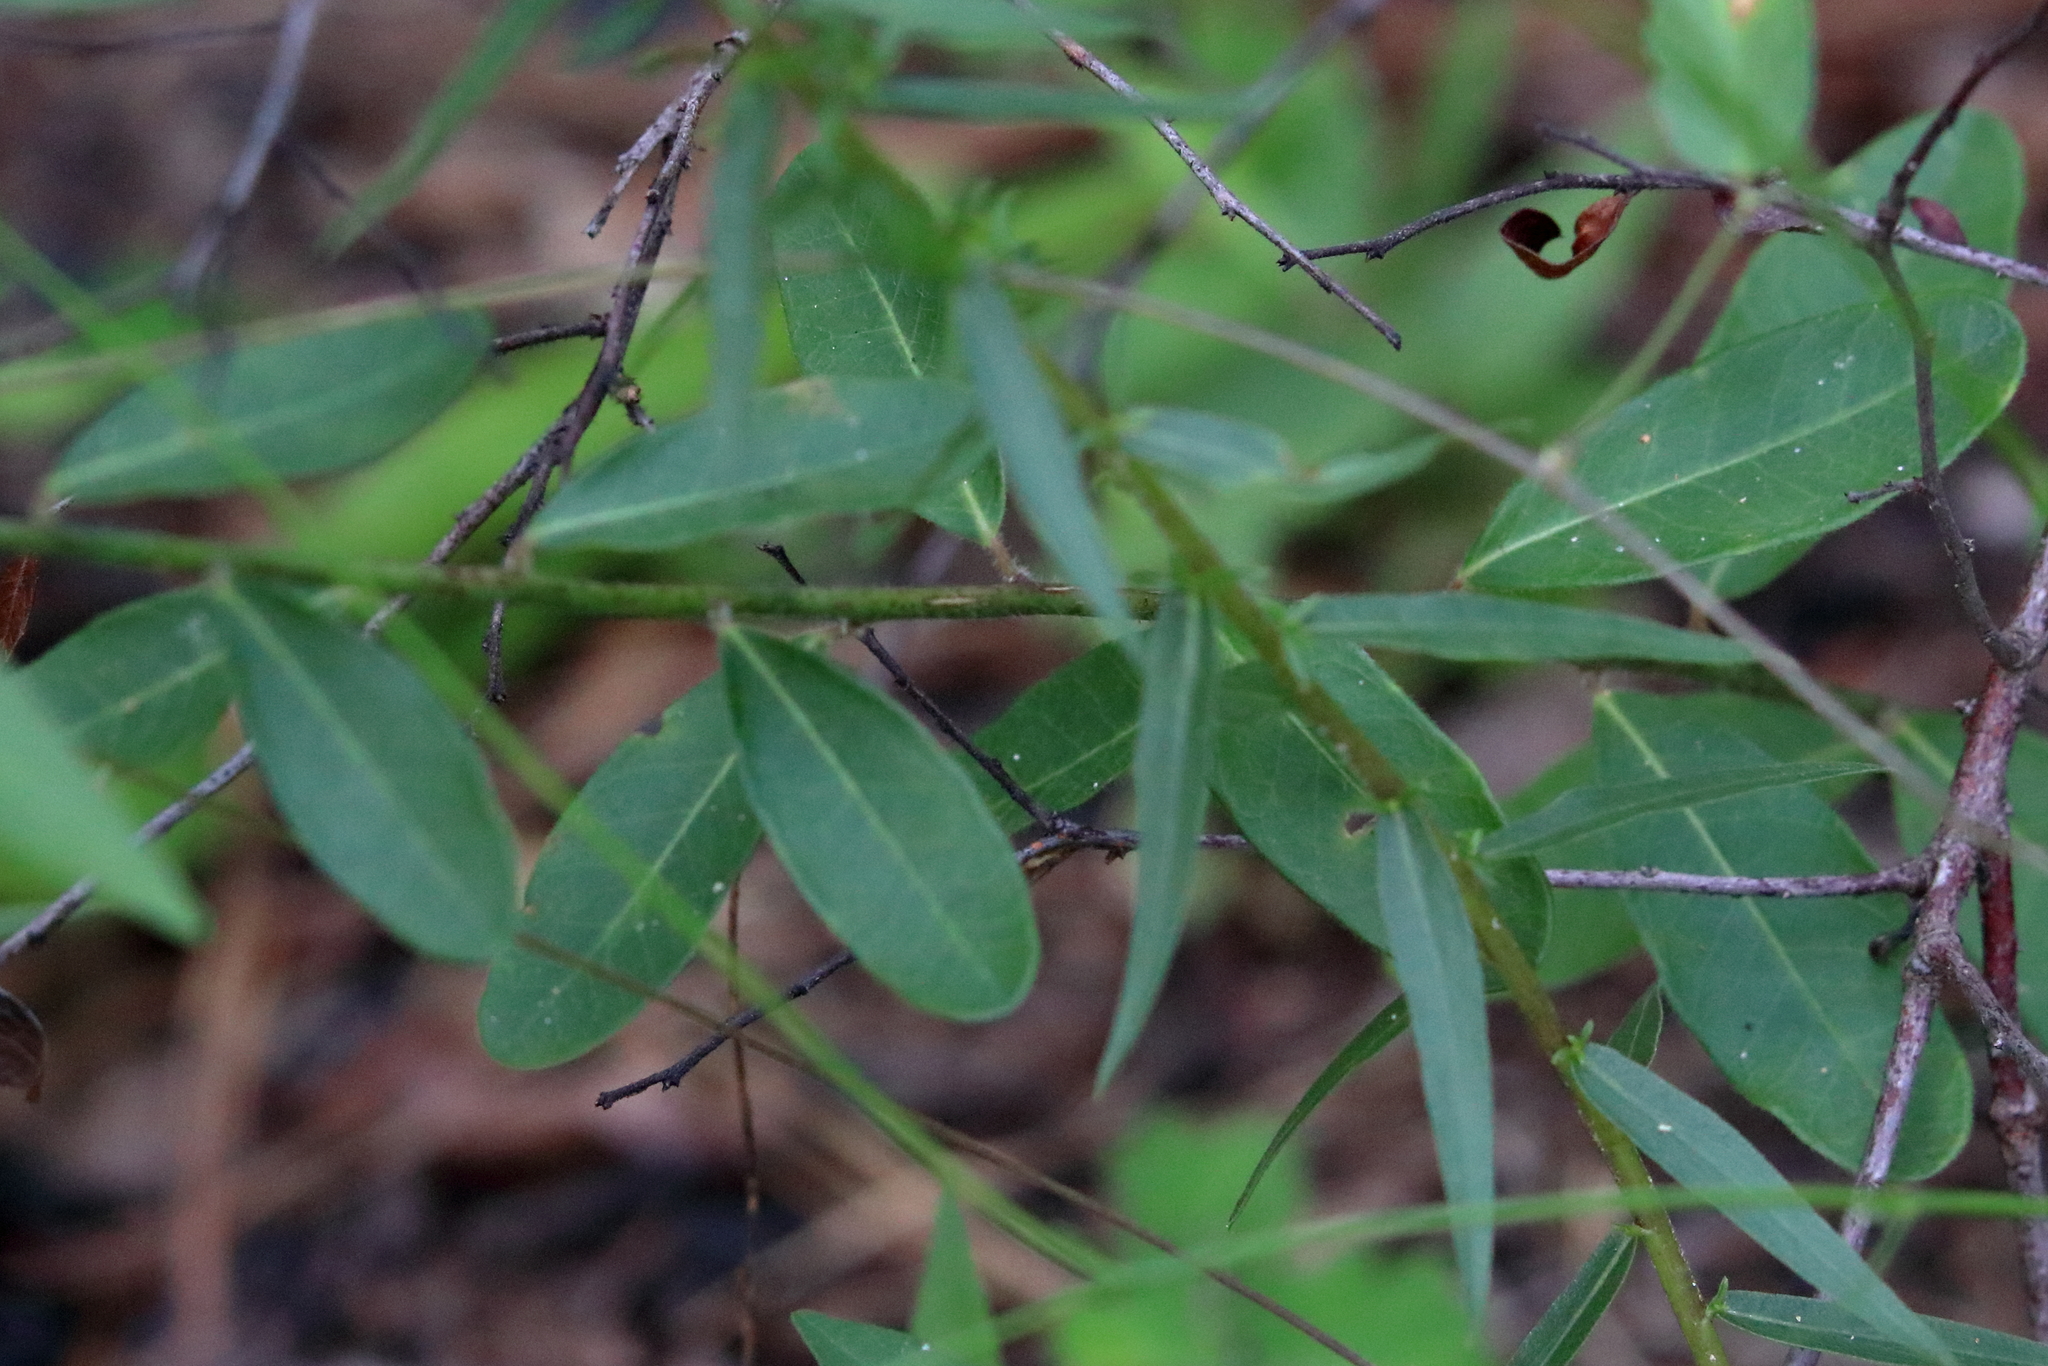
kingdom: Plantae
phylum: Tracheophyta
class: Magnoliopsida
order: Malpighiales
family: Euphorbiaceae
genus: Euphorbia
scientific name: Euphorbia corollata
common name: Flowering spurge
